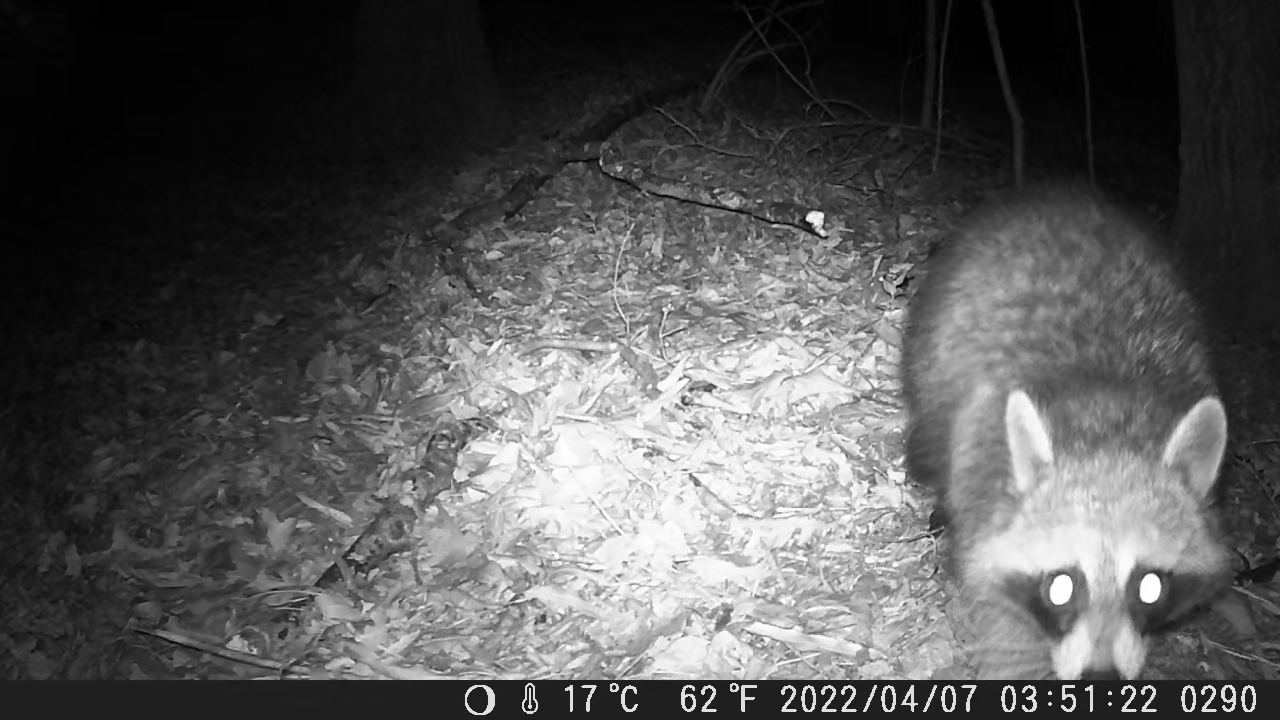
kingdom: Animalia
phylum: Chordata
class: Mammalia
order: Carnivora
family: Procyonidae
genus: Procyon
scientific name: Procyon lotor
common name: Raccoon
